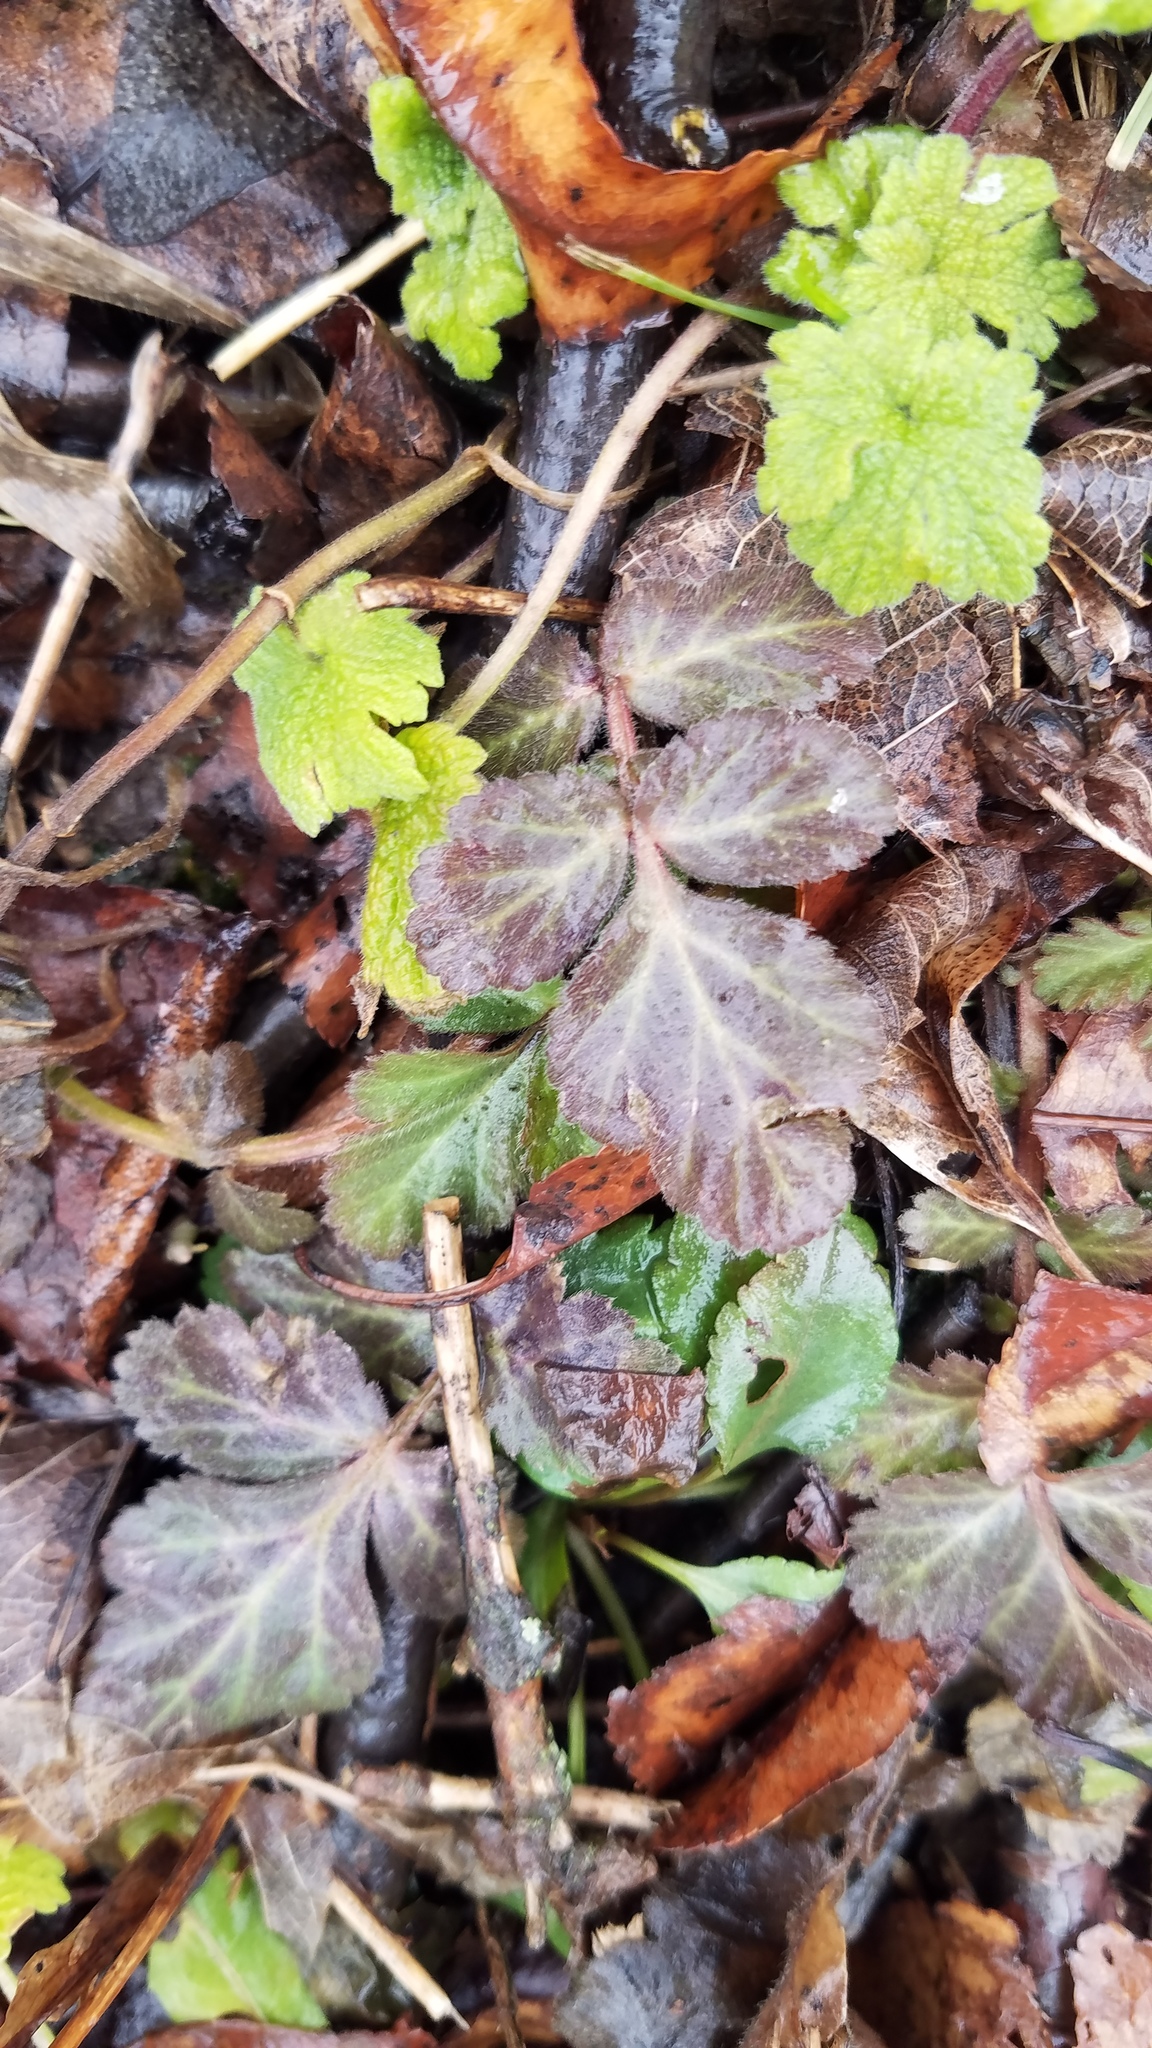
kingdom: Plantae
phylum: Tracheophyta
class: Magnoliopsida
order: Rosales
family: Rosaceae
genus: Geum
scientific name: Geum canadense
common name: White avens
